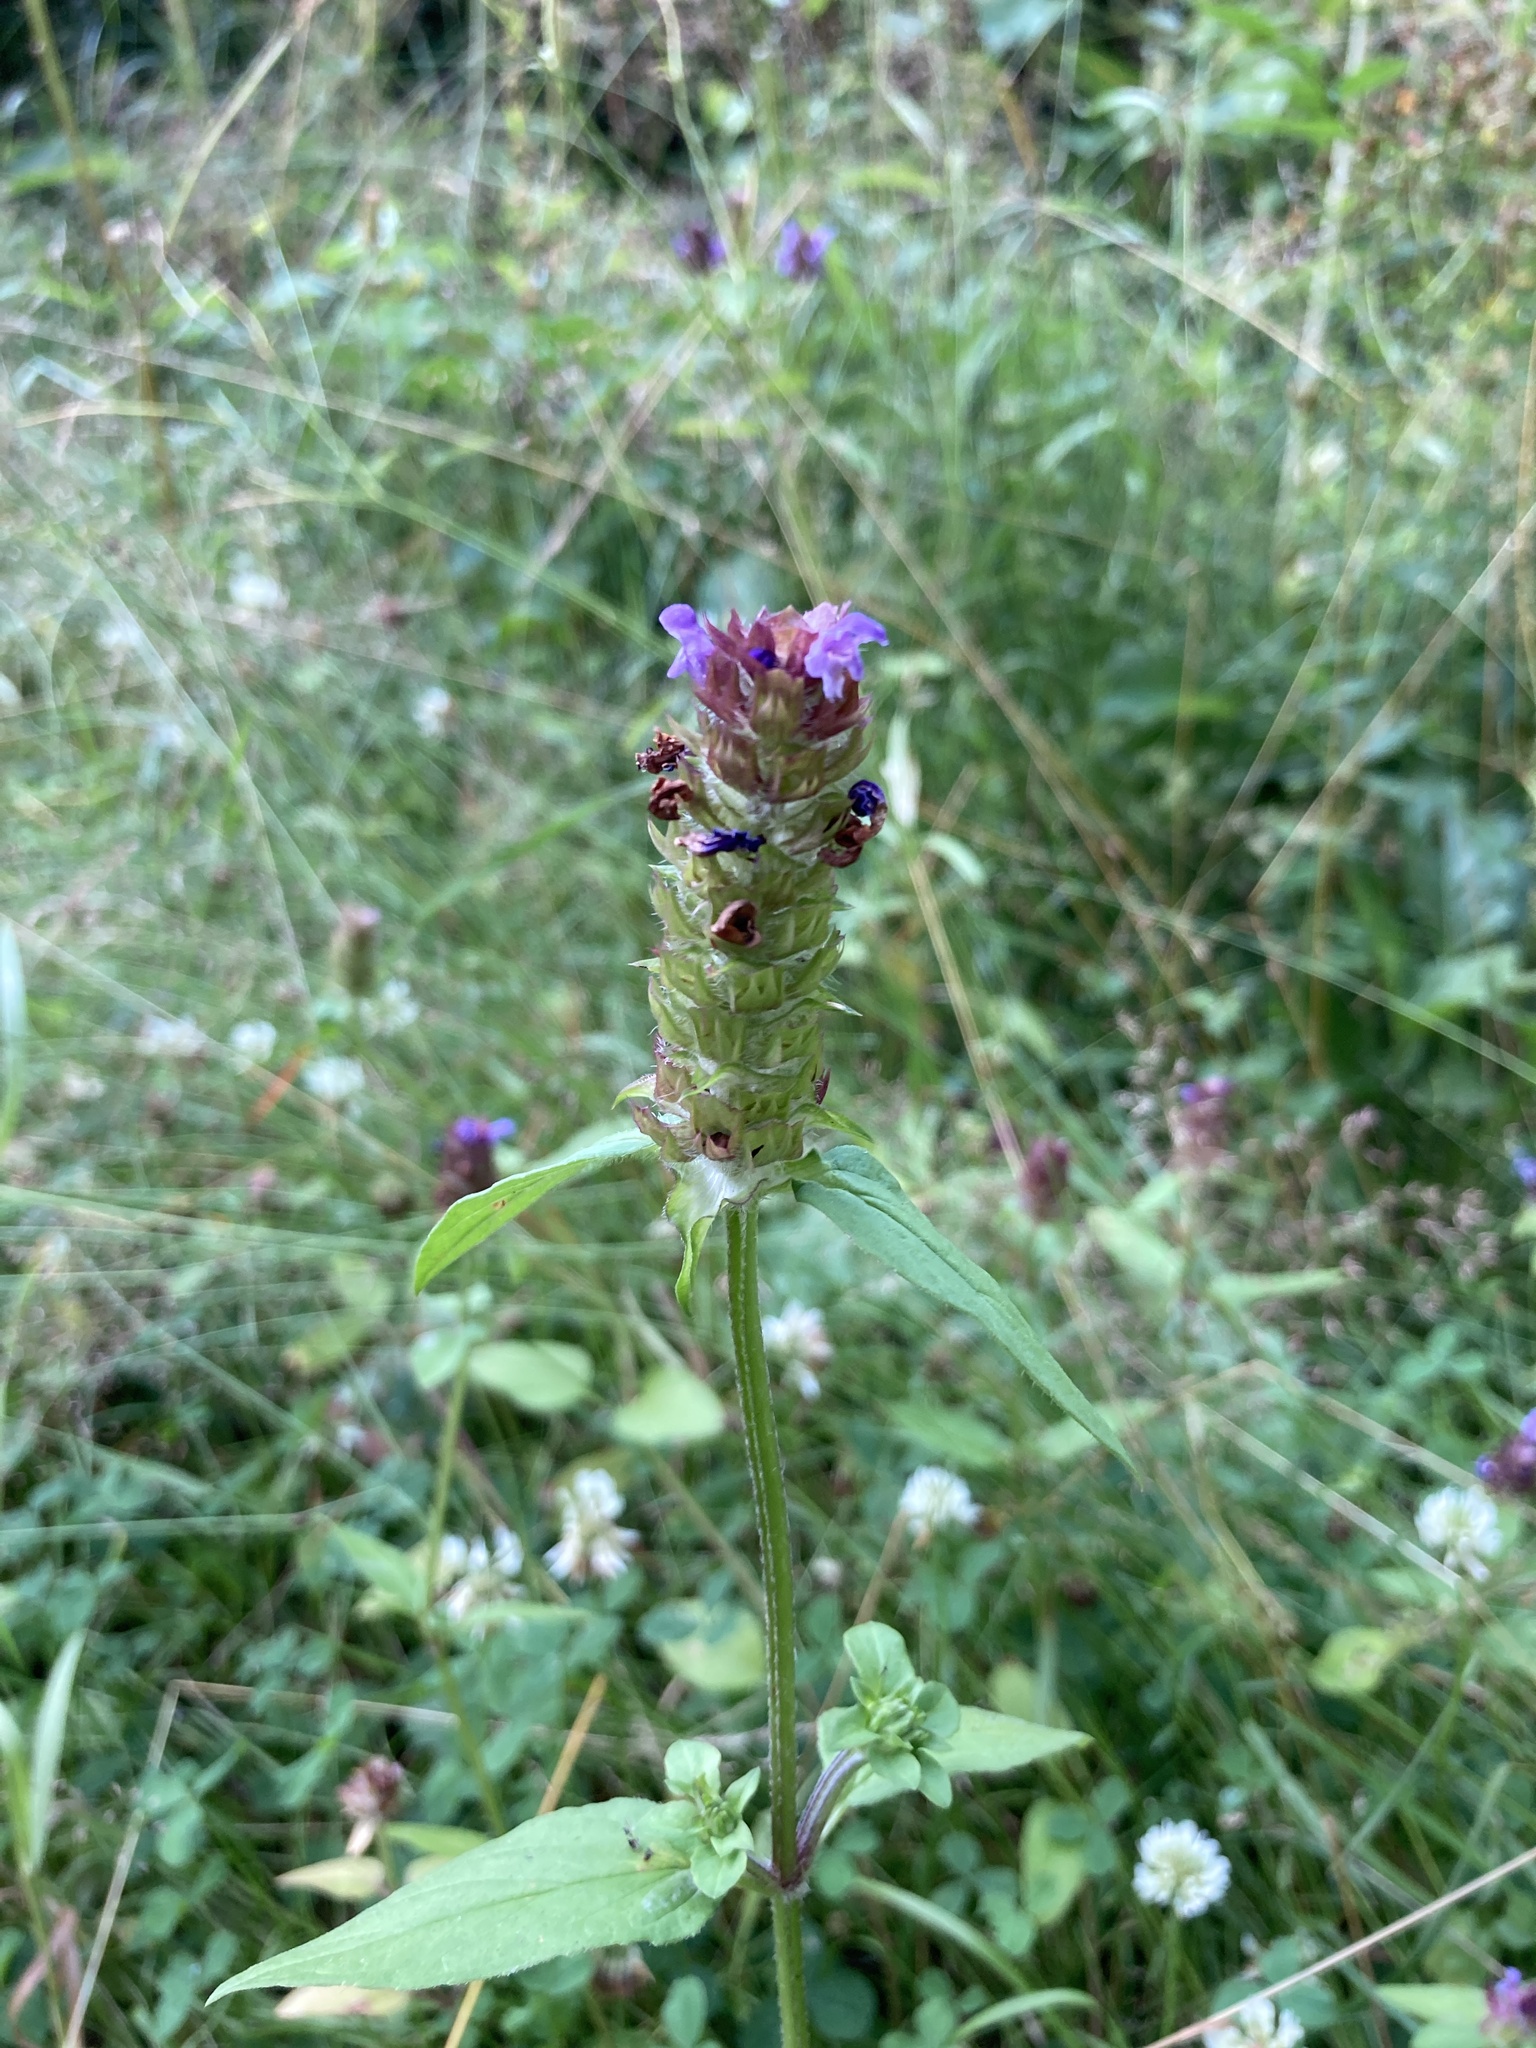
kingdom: Plantae
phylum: Tracheophyta
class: Magnoliopsida
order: Lamiales
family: Lamiaceae
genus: Prunella
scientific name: Prunella vulgaris
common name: Heal-all
